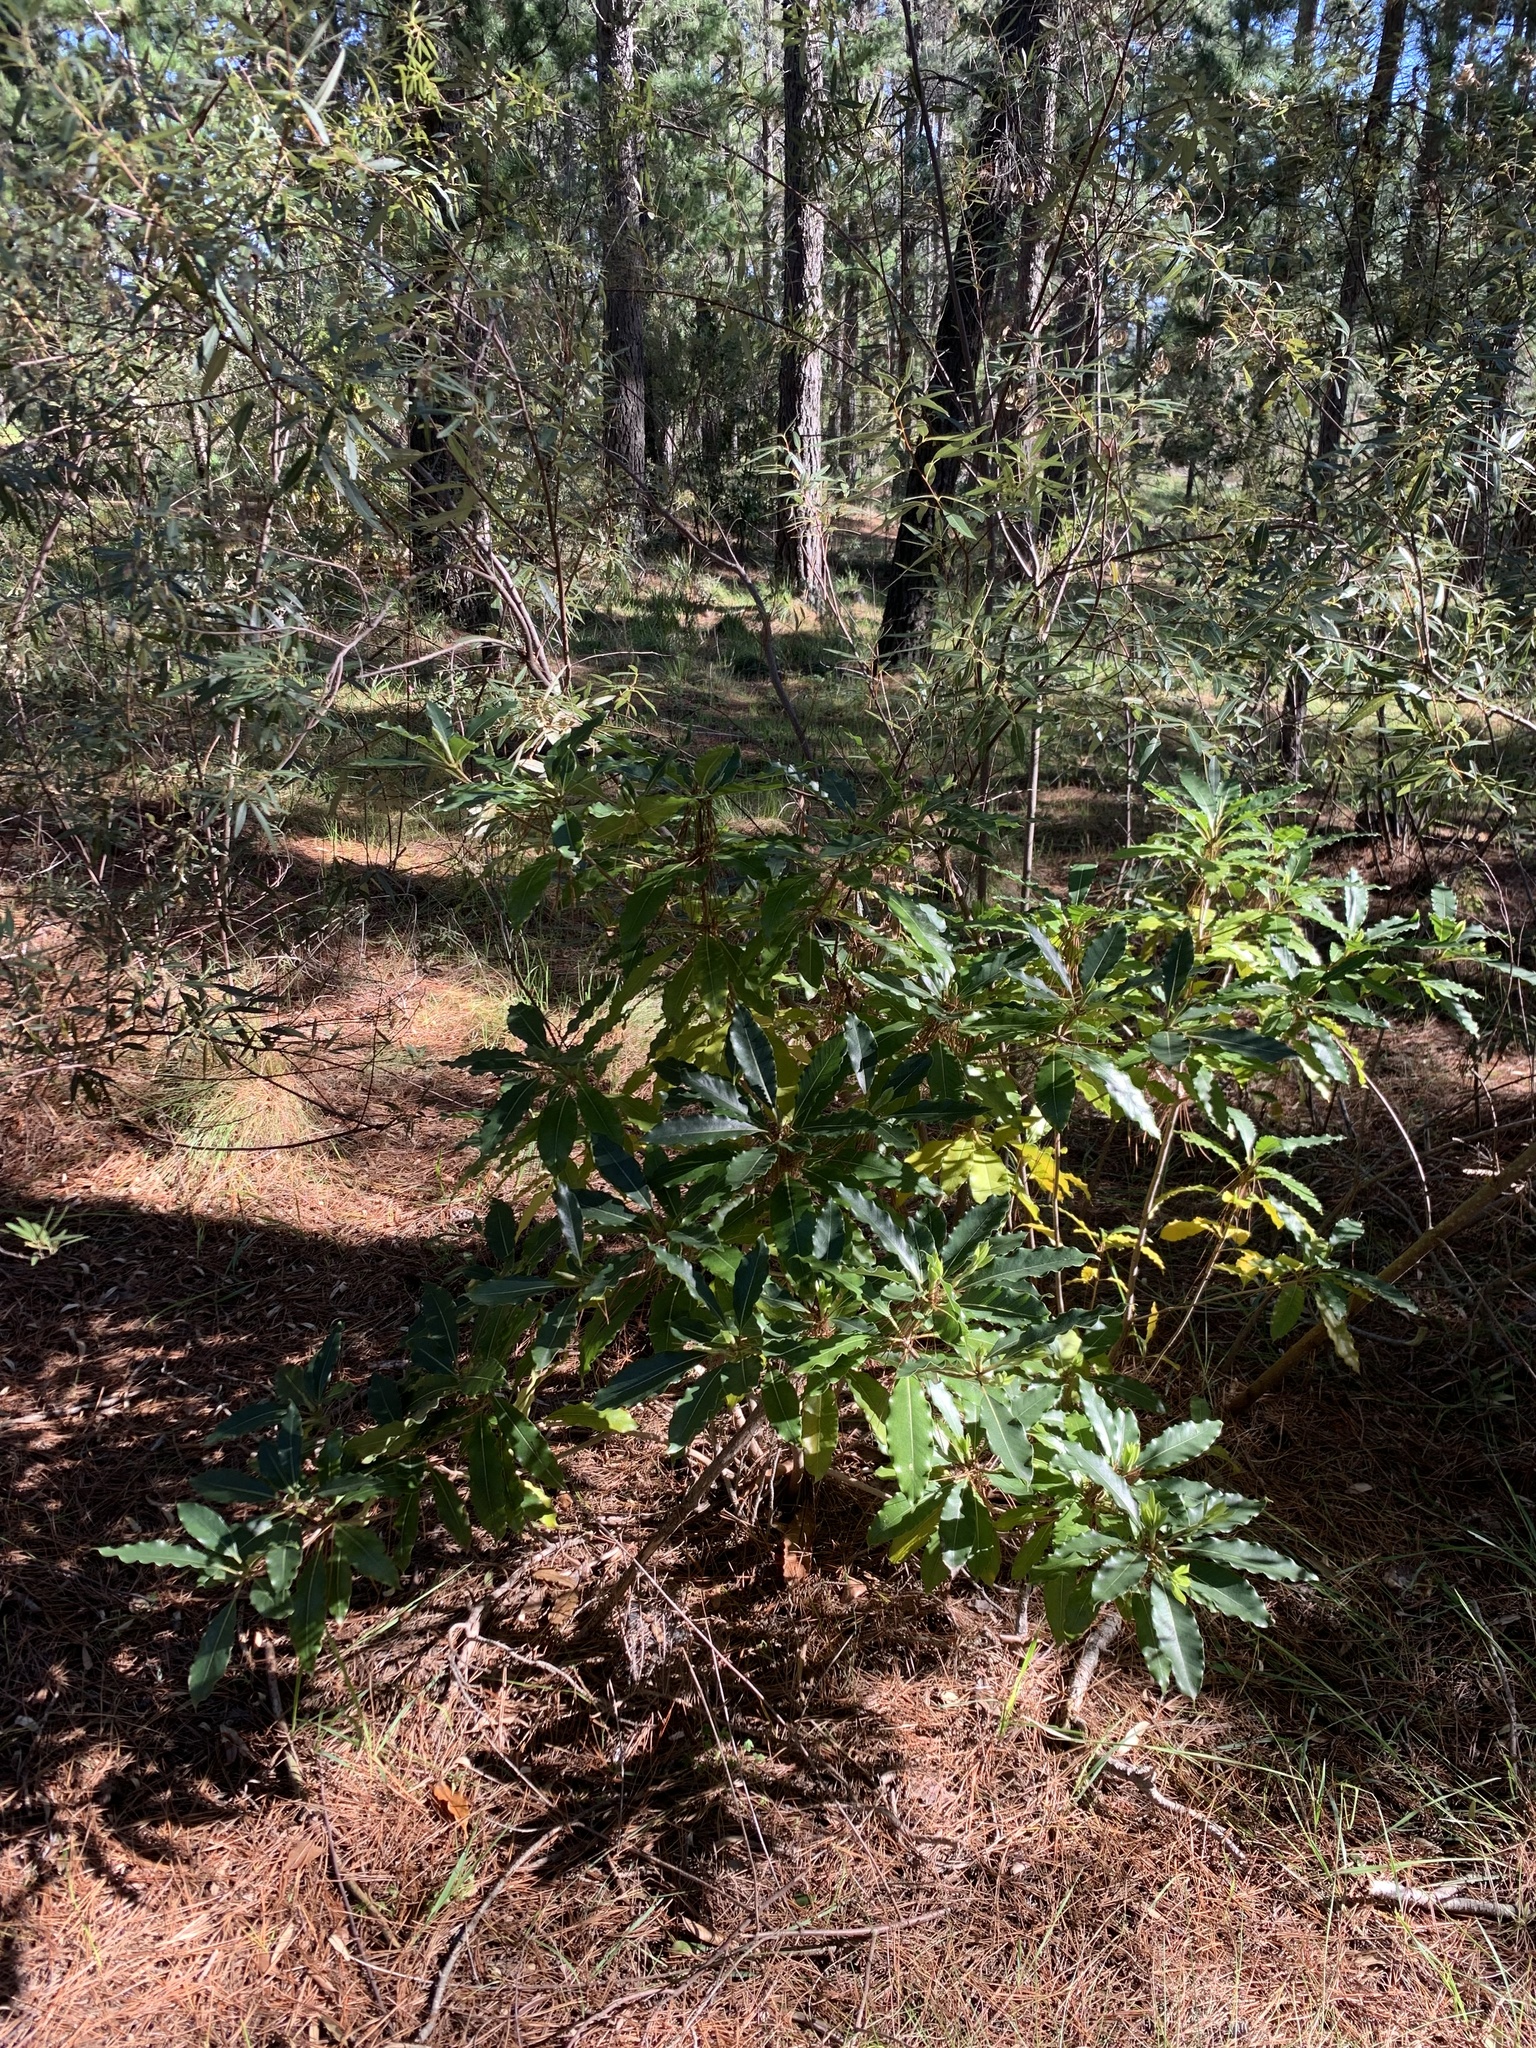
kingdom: Plantae
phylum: Tracheophyta
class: Magnoliopsida
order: Apiales
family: Pittosporaceae
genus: Pittosporum
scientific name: Pittosporum undulatum
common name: Australian cheesewood
